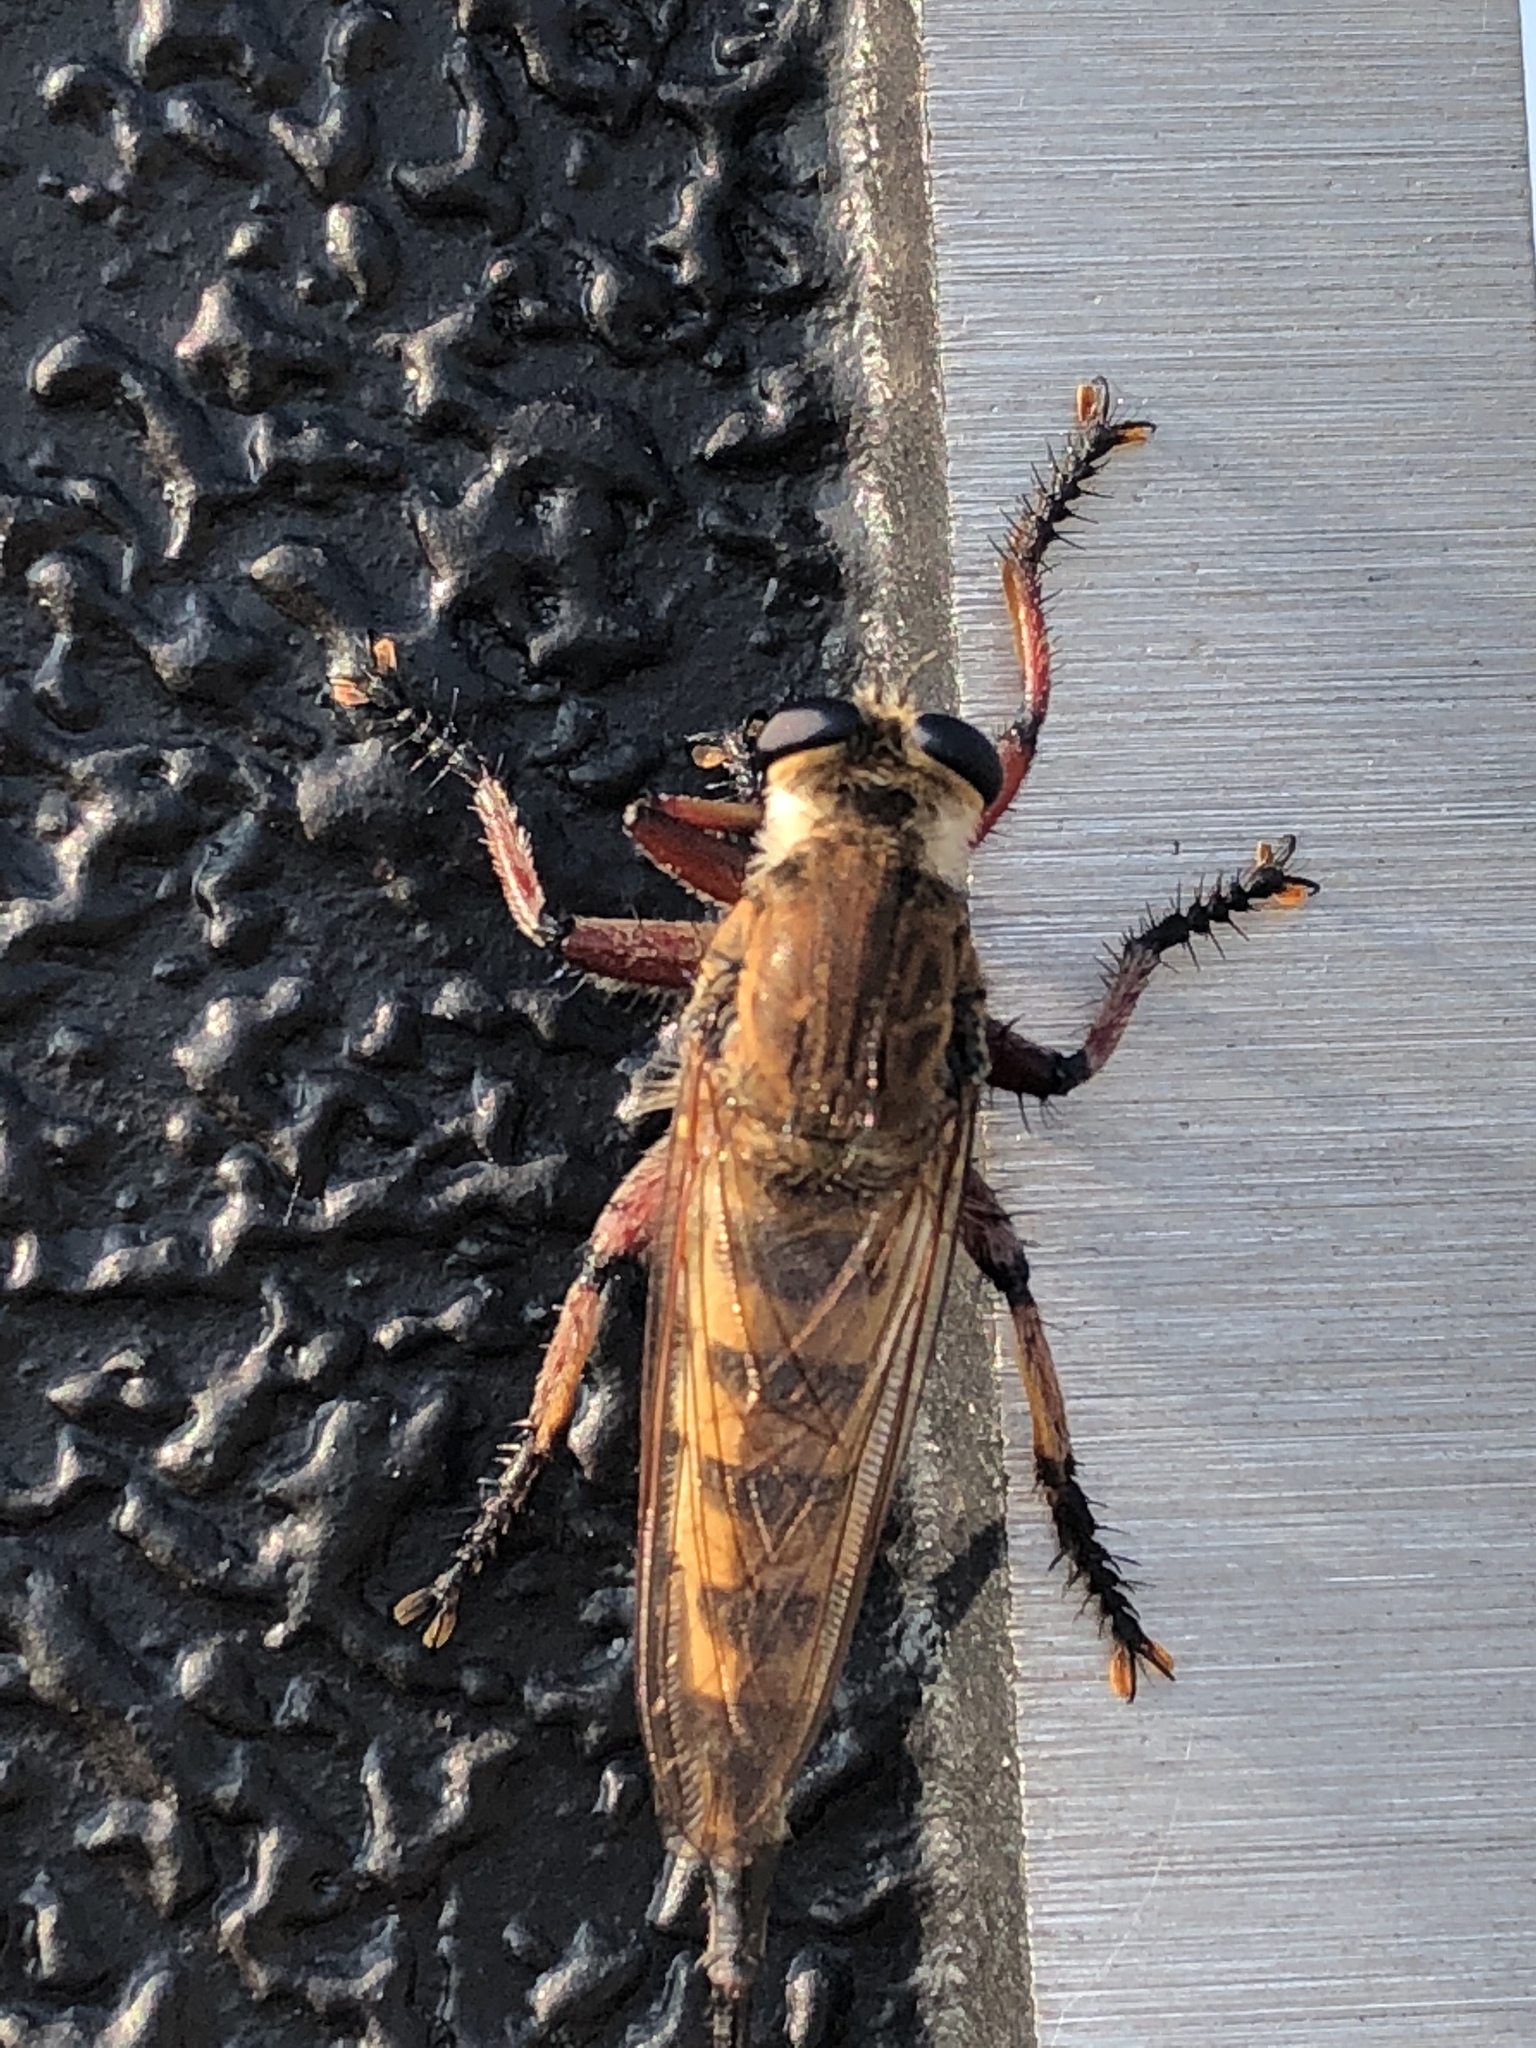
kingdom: Animalia
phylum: Arthropoda
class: Insecta
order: Diptera
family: Asilidae
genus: Promachus
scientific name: Promachus hinei
